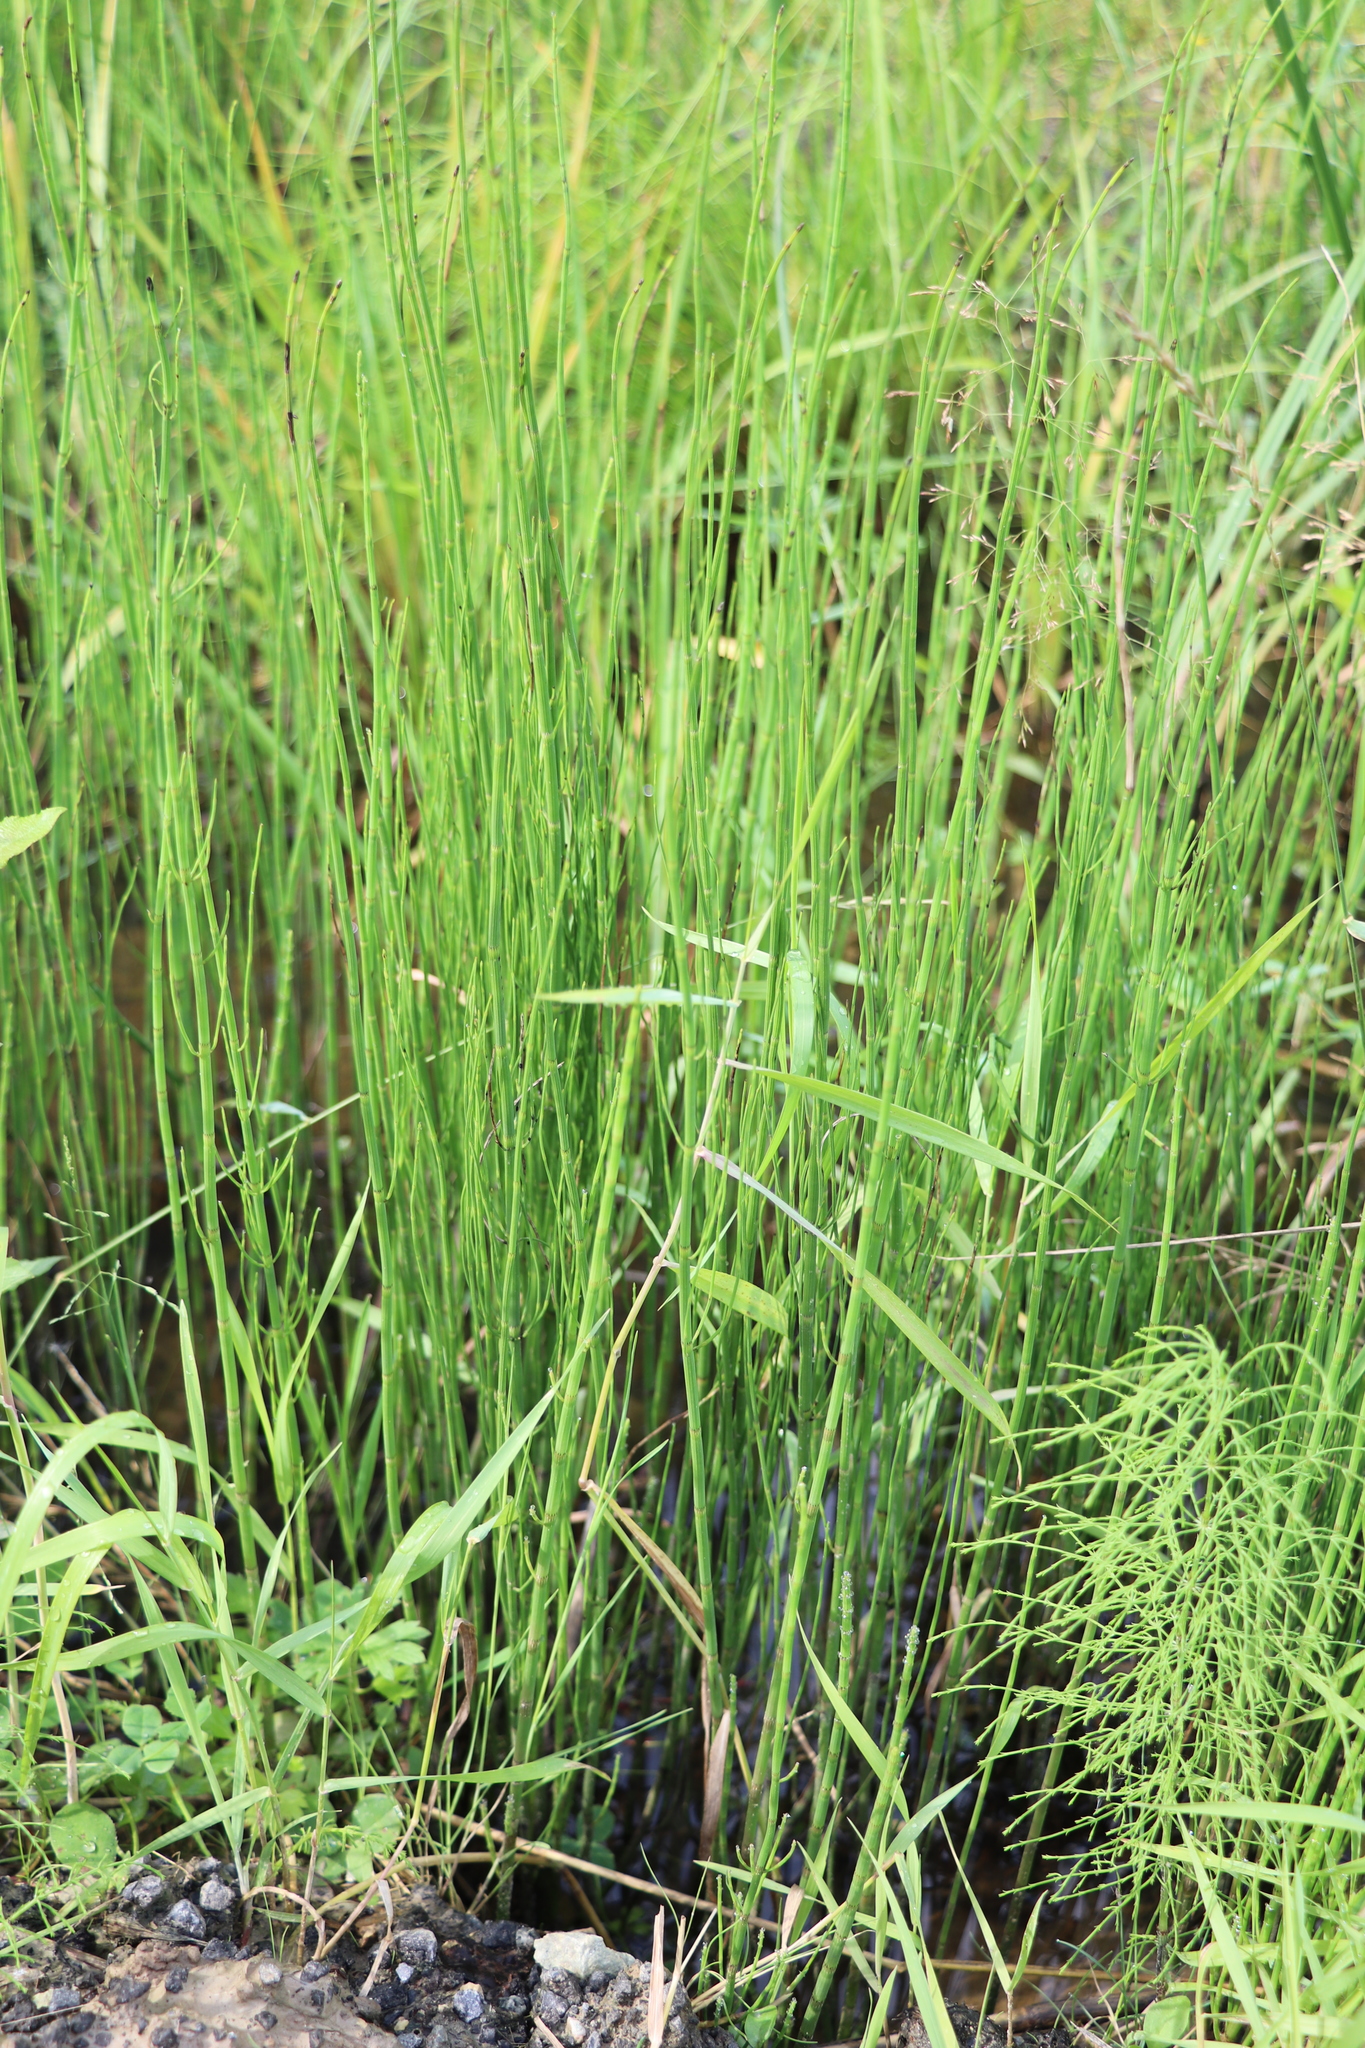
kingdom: Plantae
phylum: Tracheophyta
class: Polypodiopsida
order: Equisetales
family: Equisetaceae
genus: Equisetum
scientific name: Equisetum fluviatile
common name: Water horsetail
